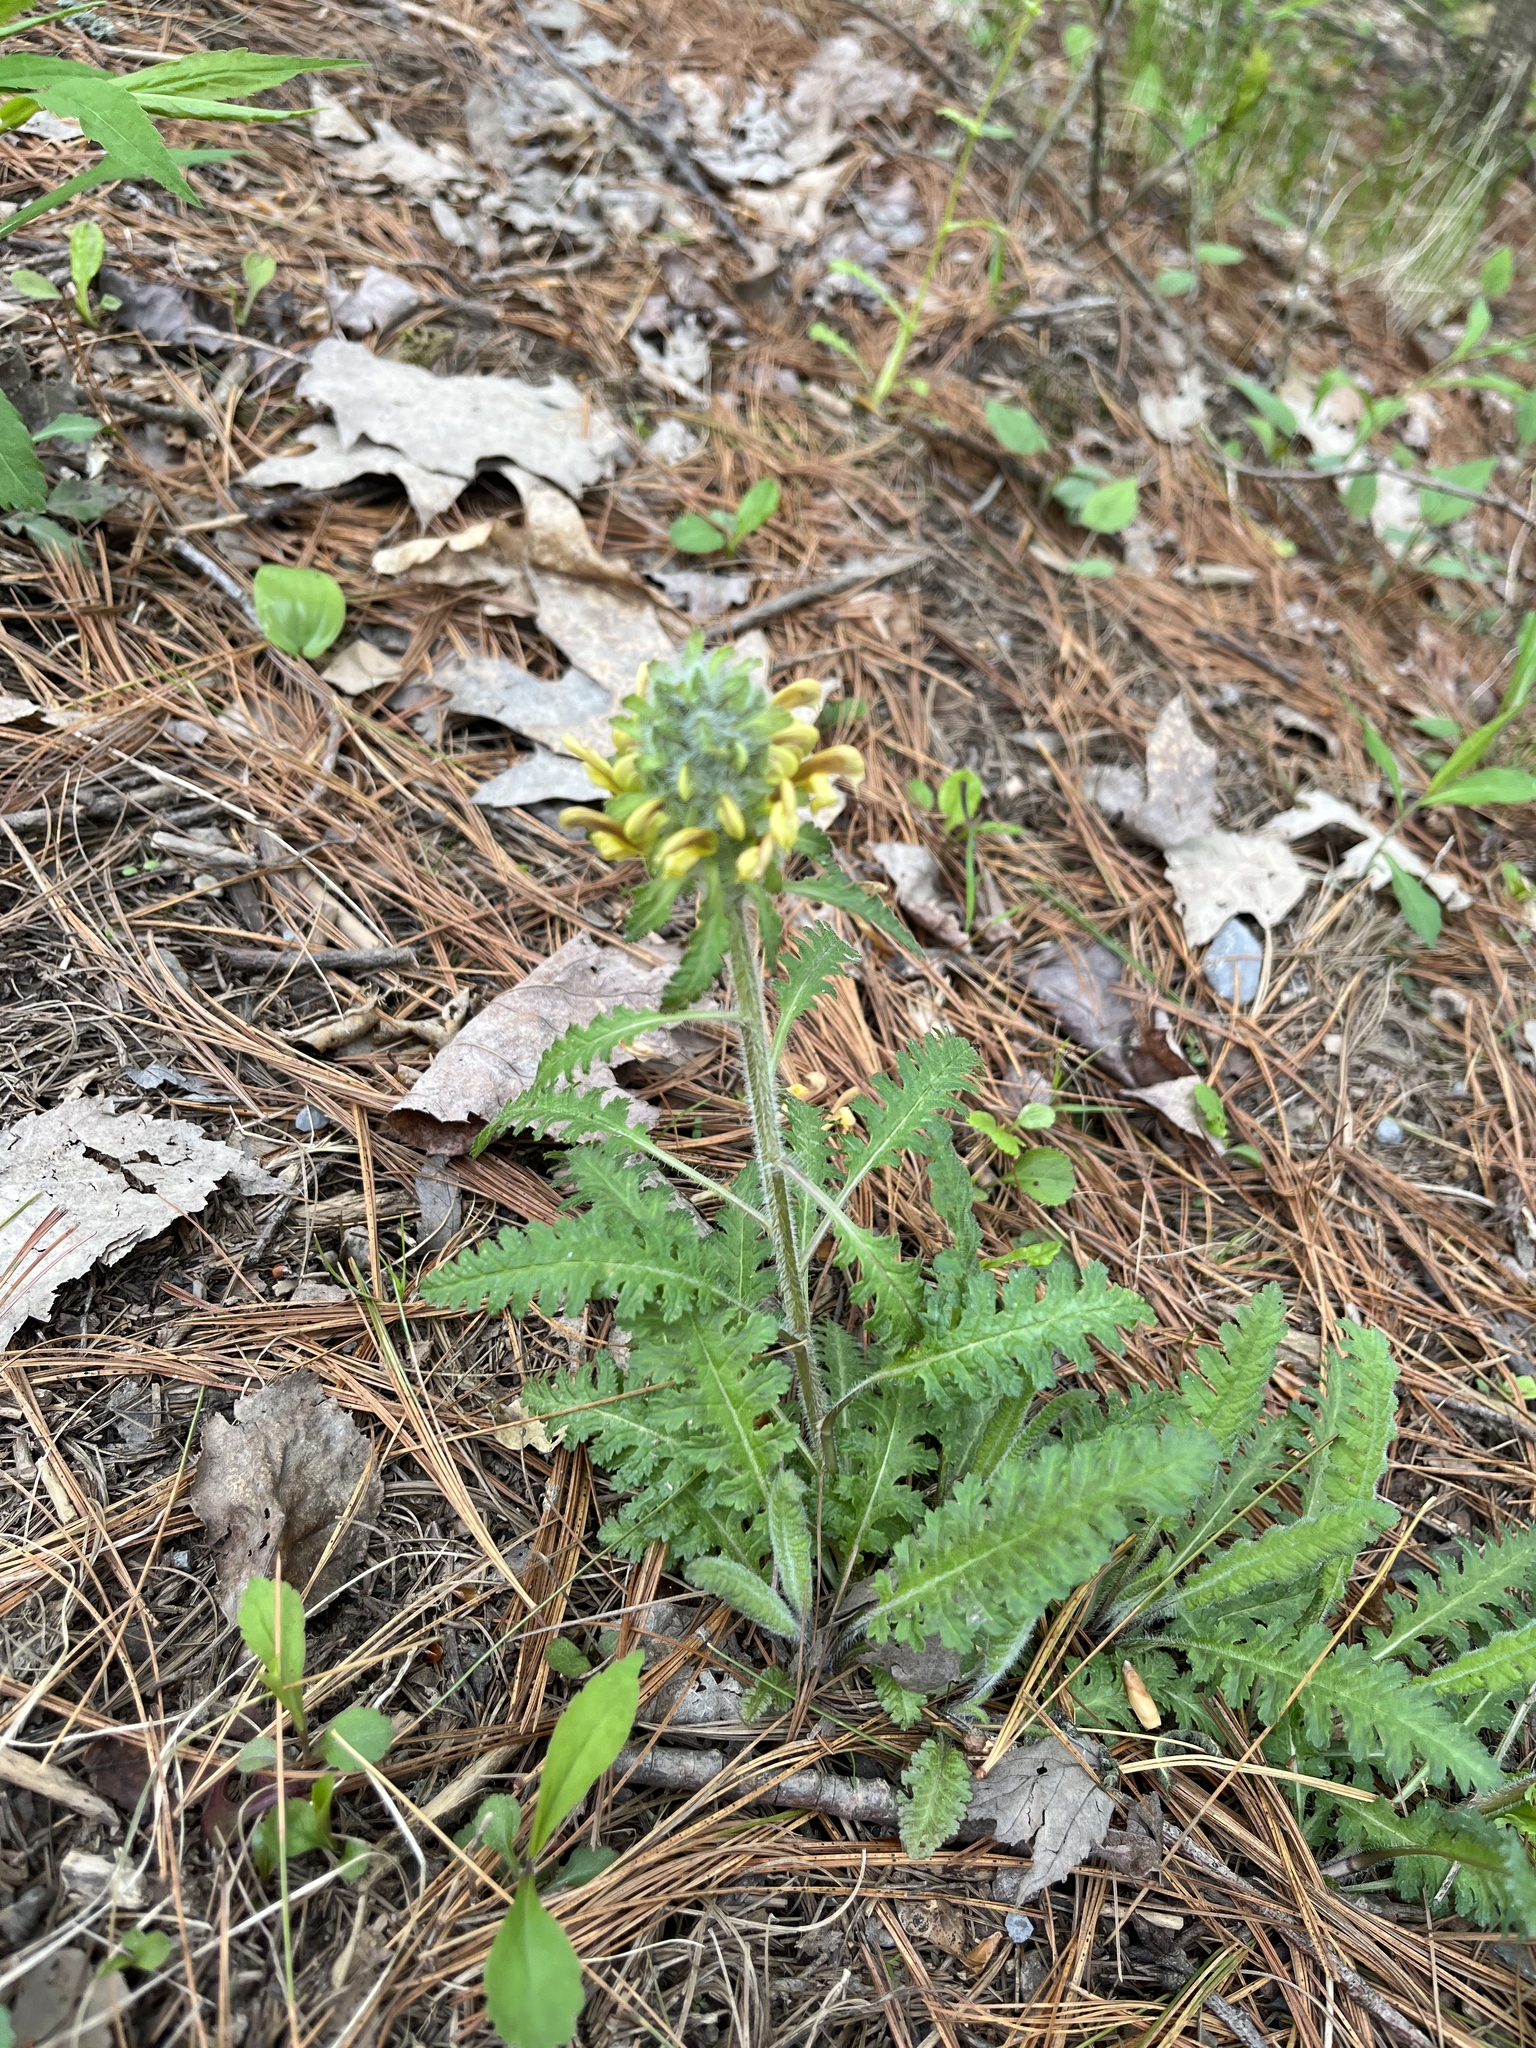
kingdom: Plantae
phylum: Tracheophyta
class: Magnoliopsida
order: Lamiales
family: Orobanchaceae
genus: Pedicularis
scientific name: Pedicularis canadensis
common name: Early lousewort
